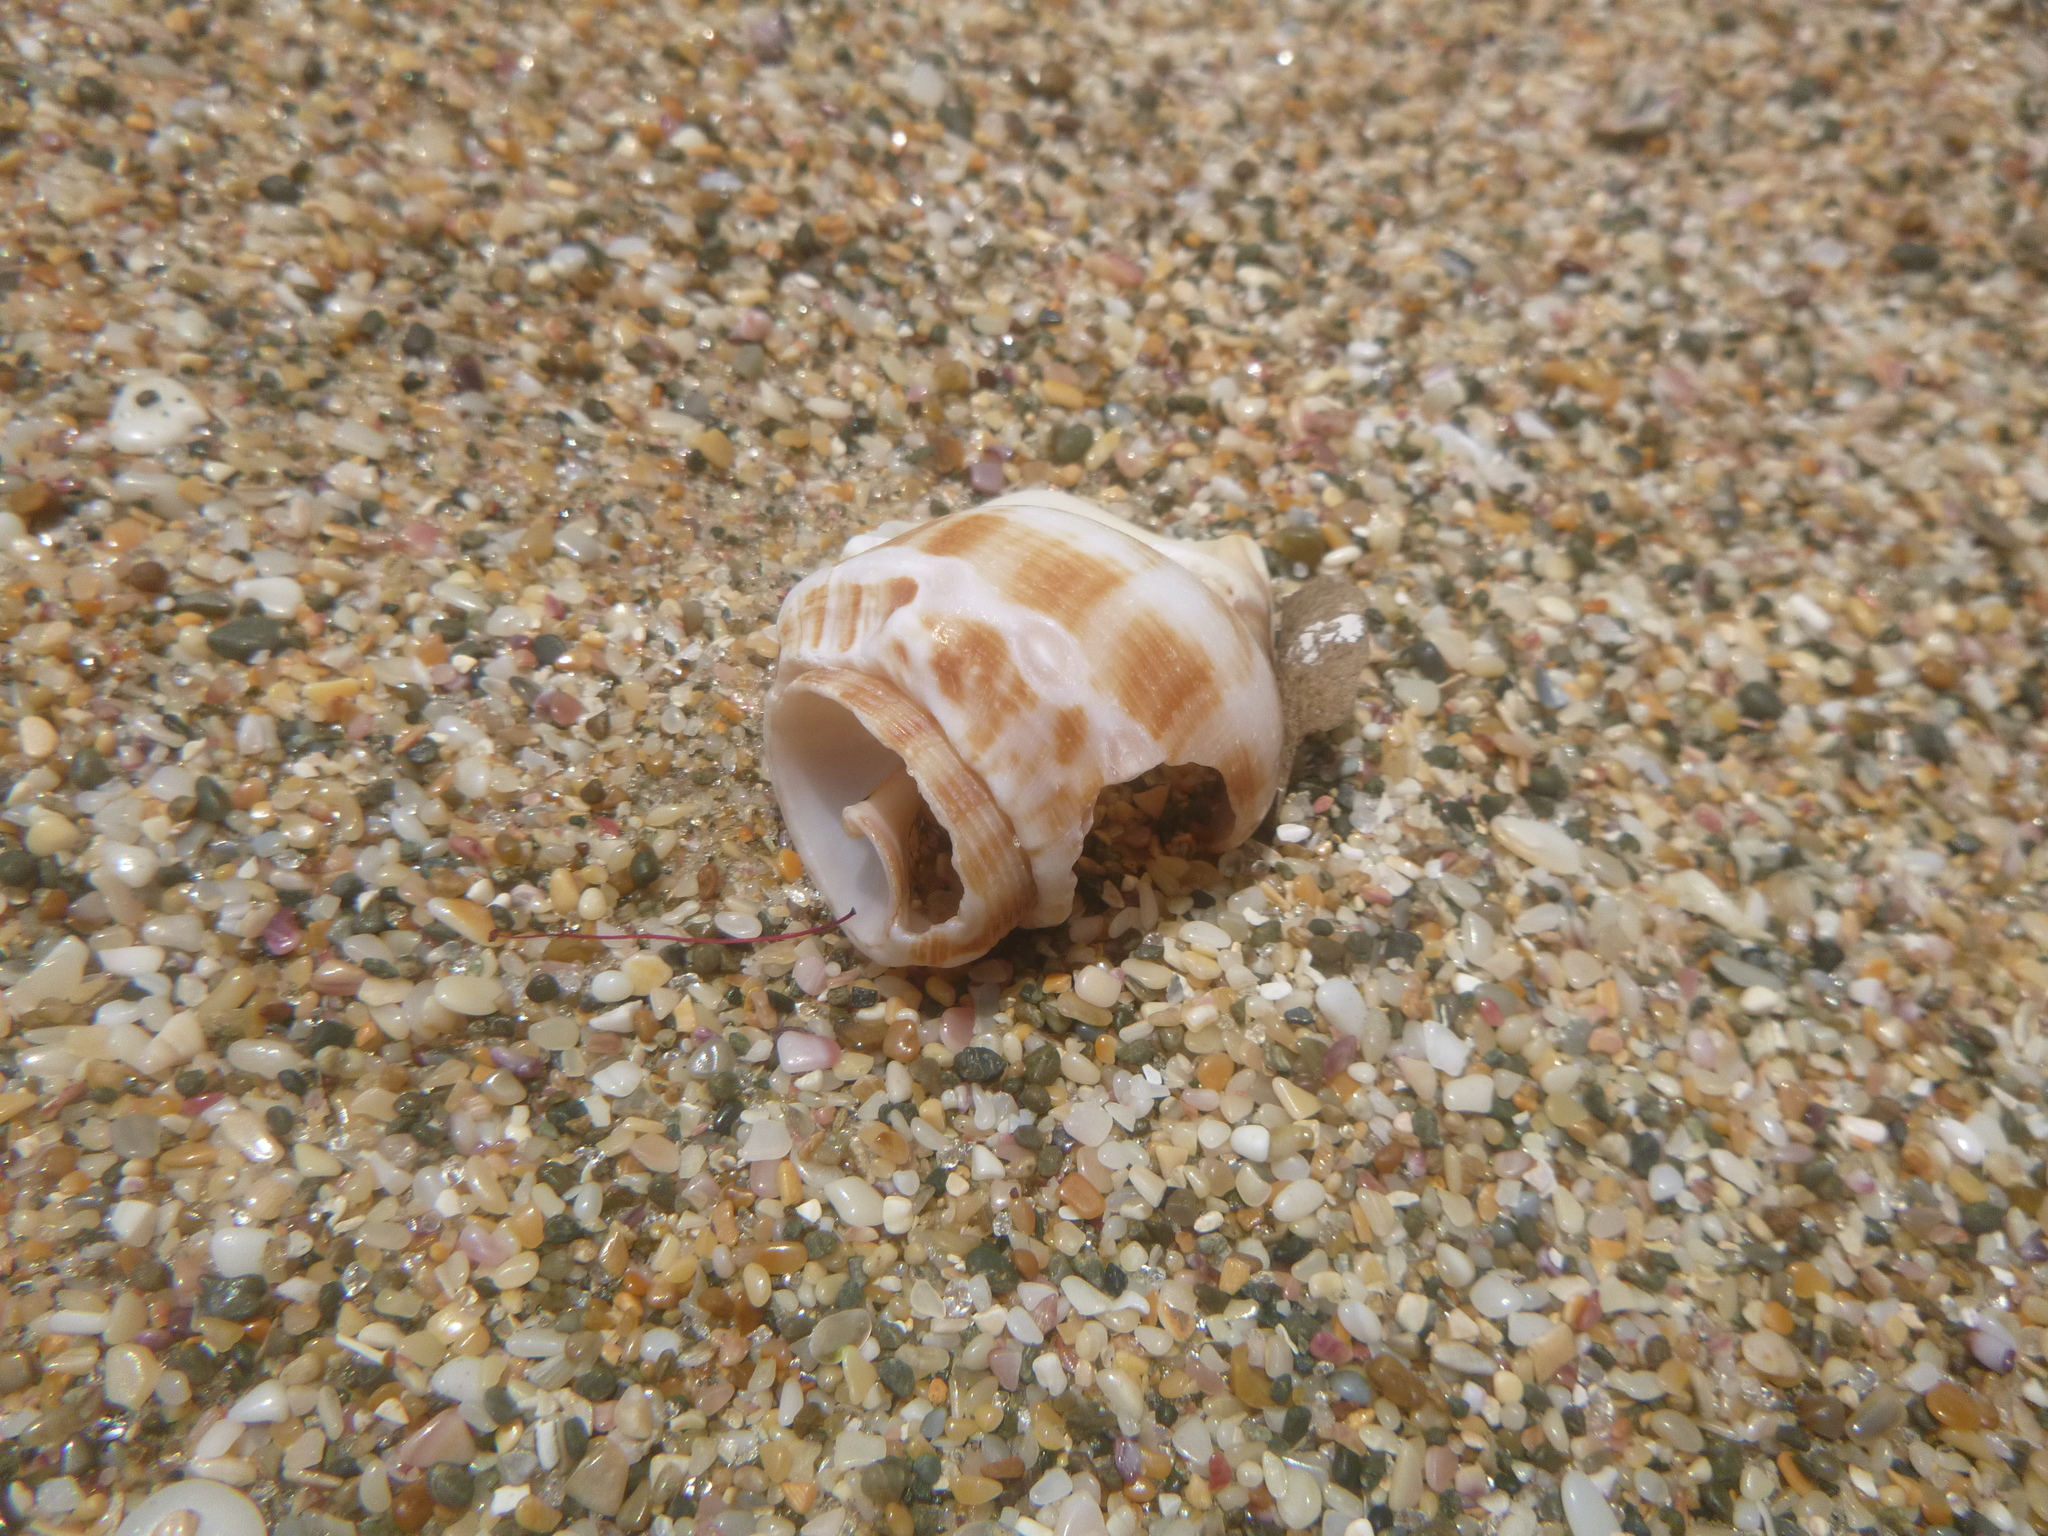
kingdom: Animalia
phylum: Mollusca
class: Gastropoda
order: Littorinimorpha
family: Struthiolariidae
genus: Struthiolaria
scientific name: Struthiolaria papulosa
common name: Large ostrich foot
